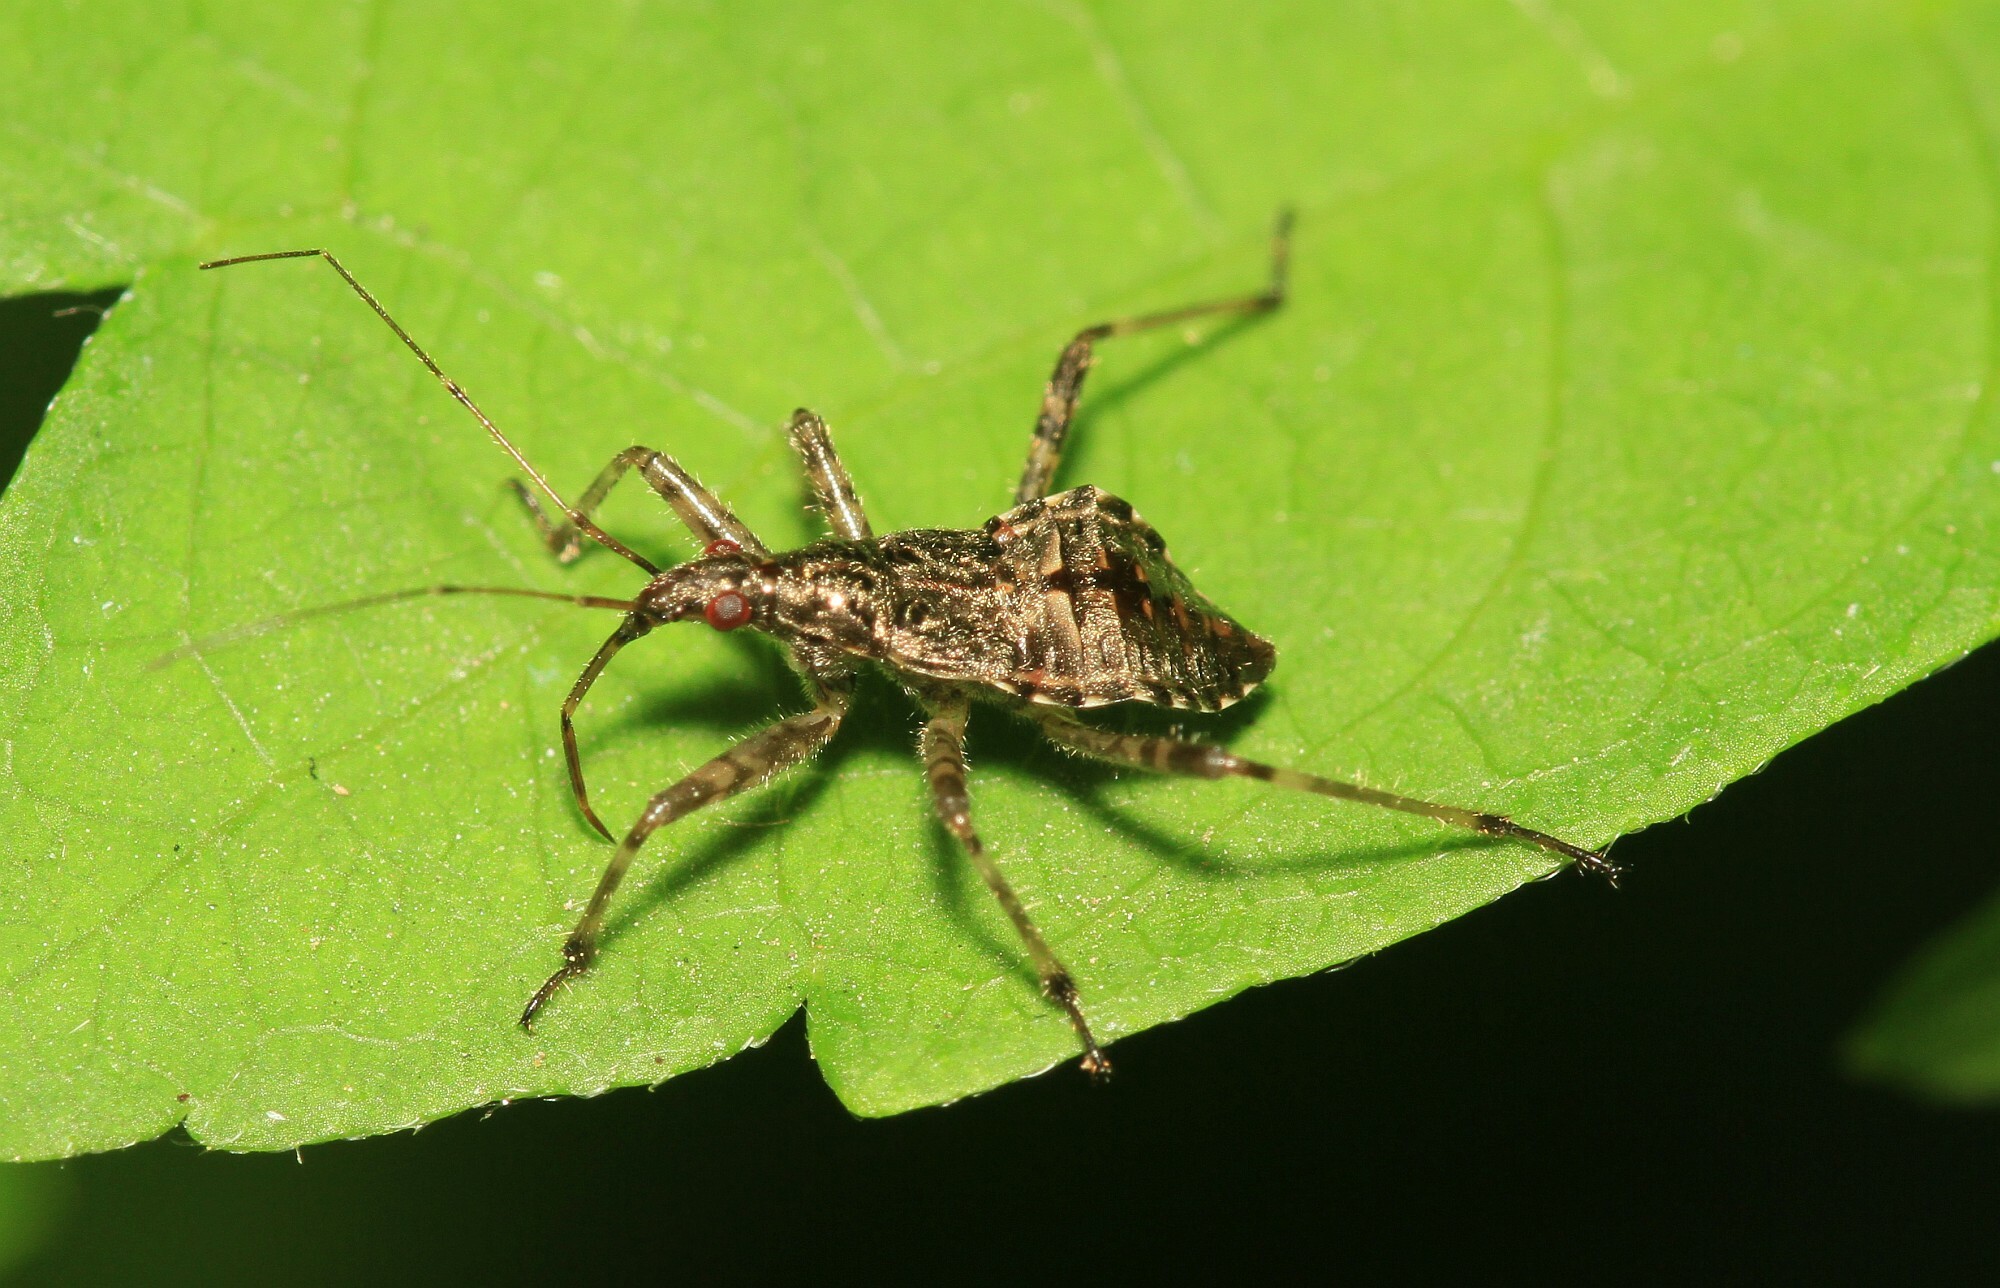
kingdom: Animalia
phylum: Arthropoda
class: Insecta
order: Hemiptera
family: Nabidae
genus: Himacerus
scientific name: Himacerus apterus
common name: Tree damsel bug
